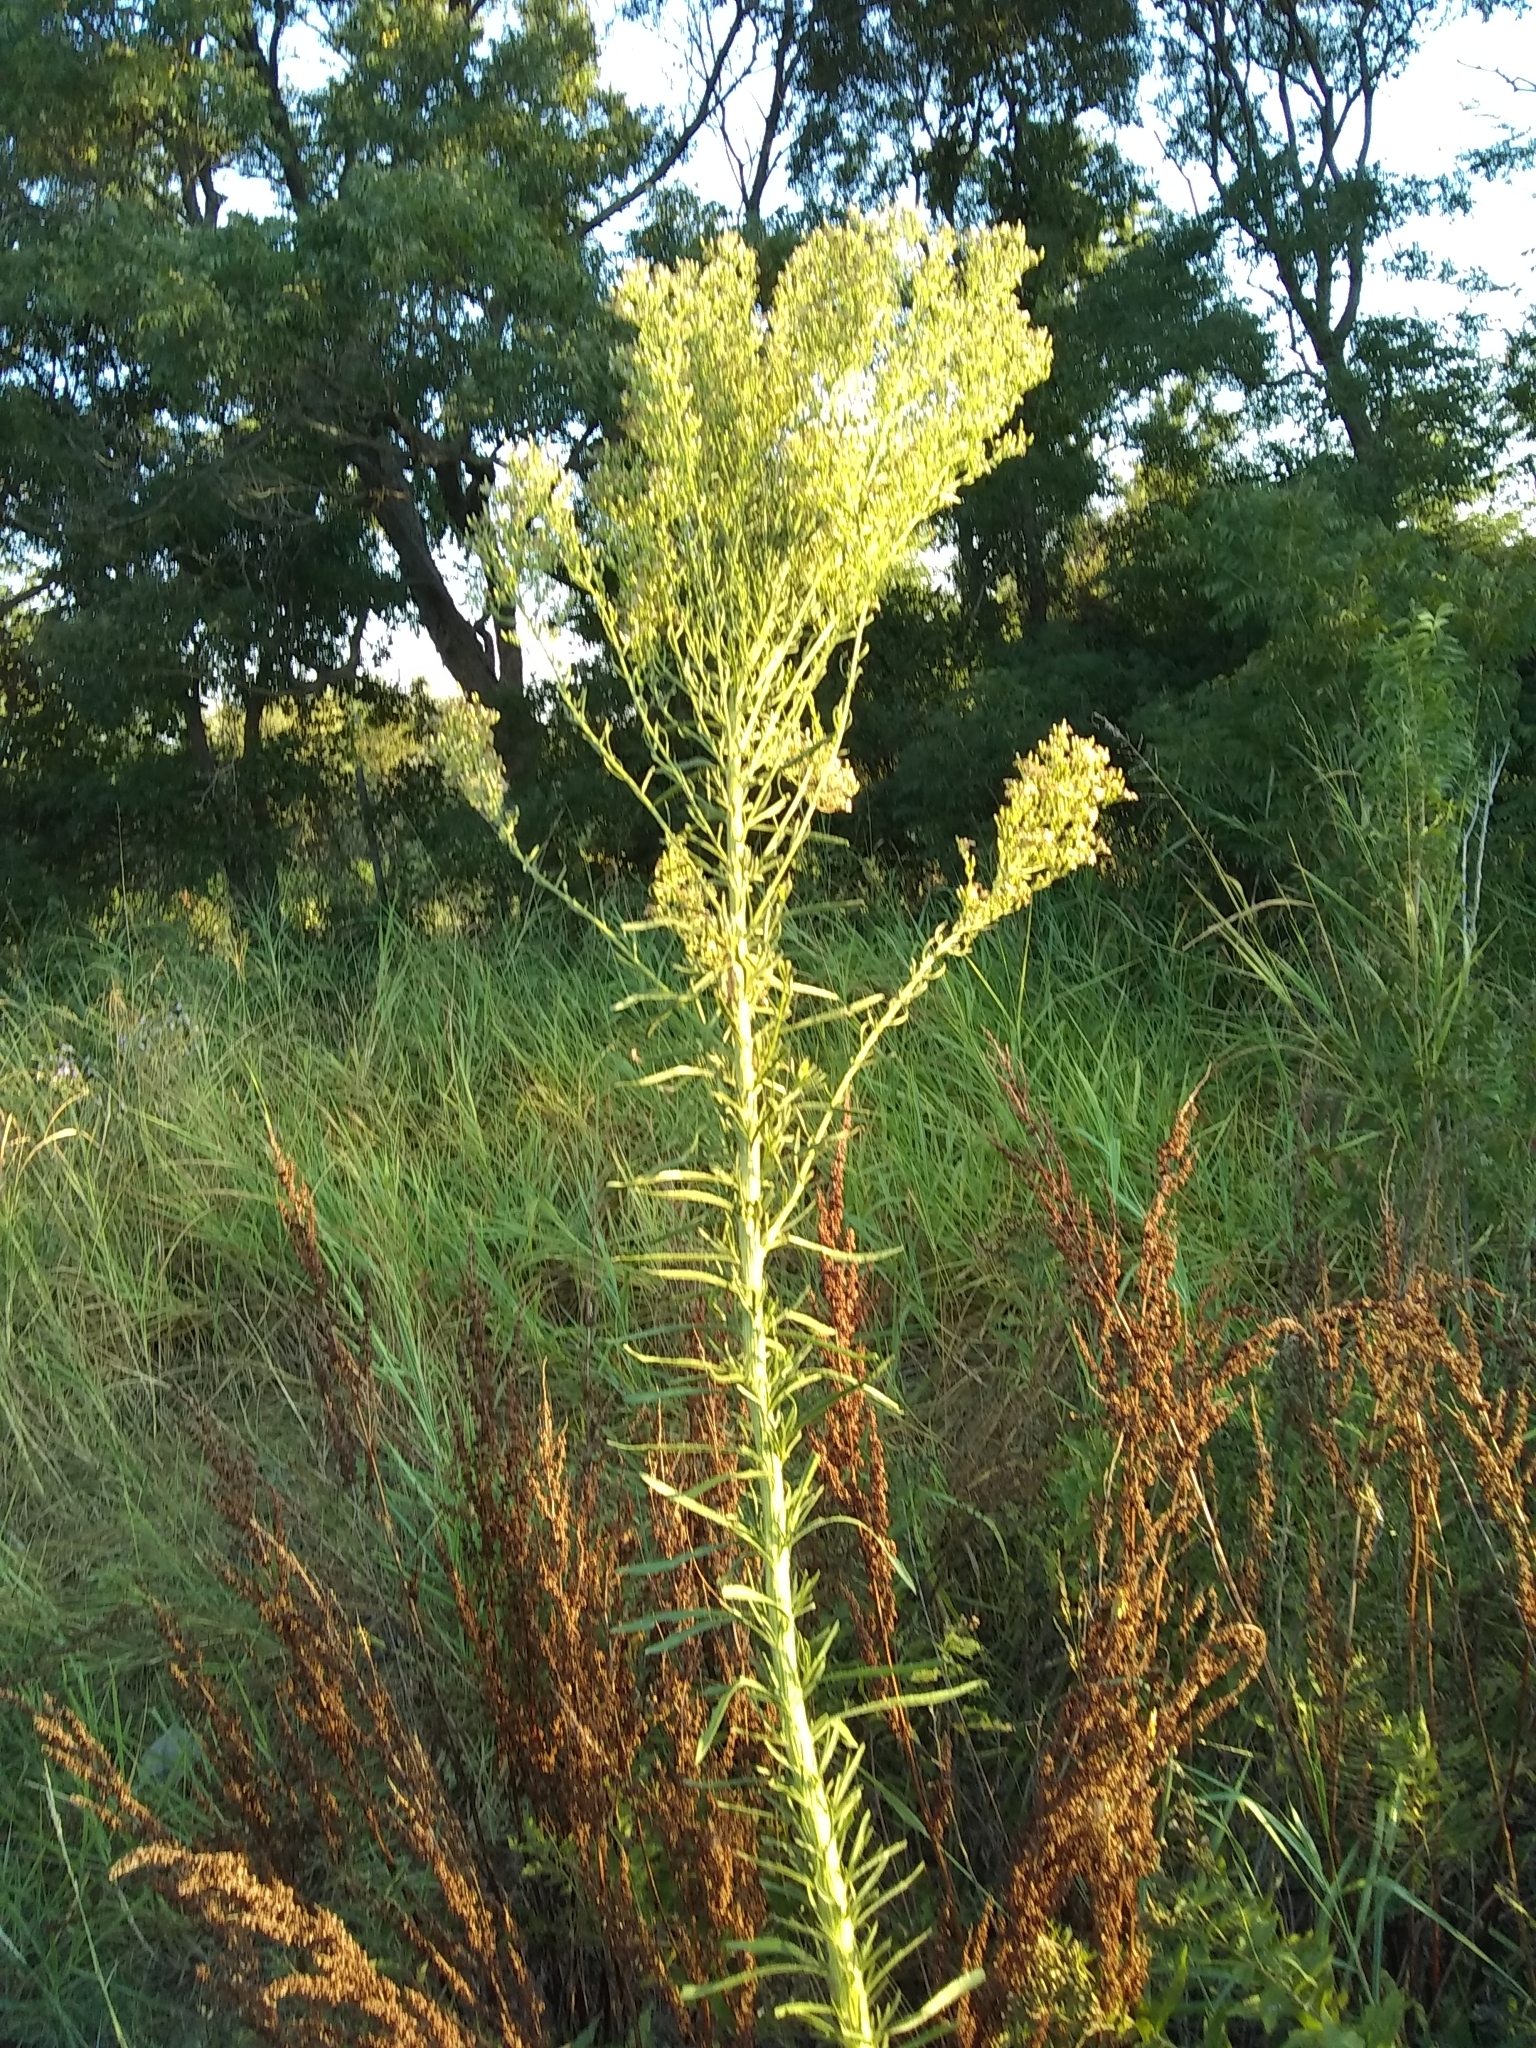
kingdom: Plantae
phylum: Tracheophyta
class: Magnoliopsida
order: Asterales
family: Asteraceae
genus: Erigeron
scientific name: Erigeron canadensis
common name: Canadian fleabane
